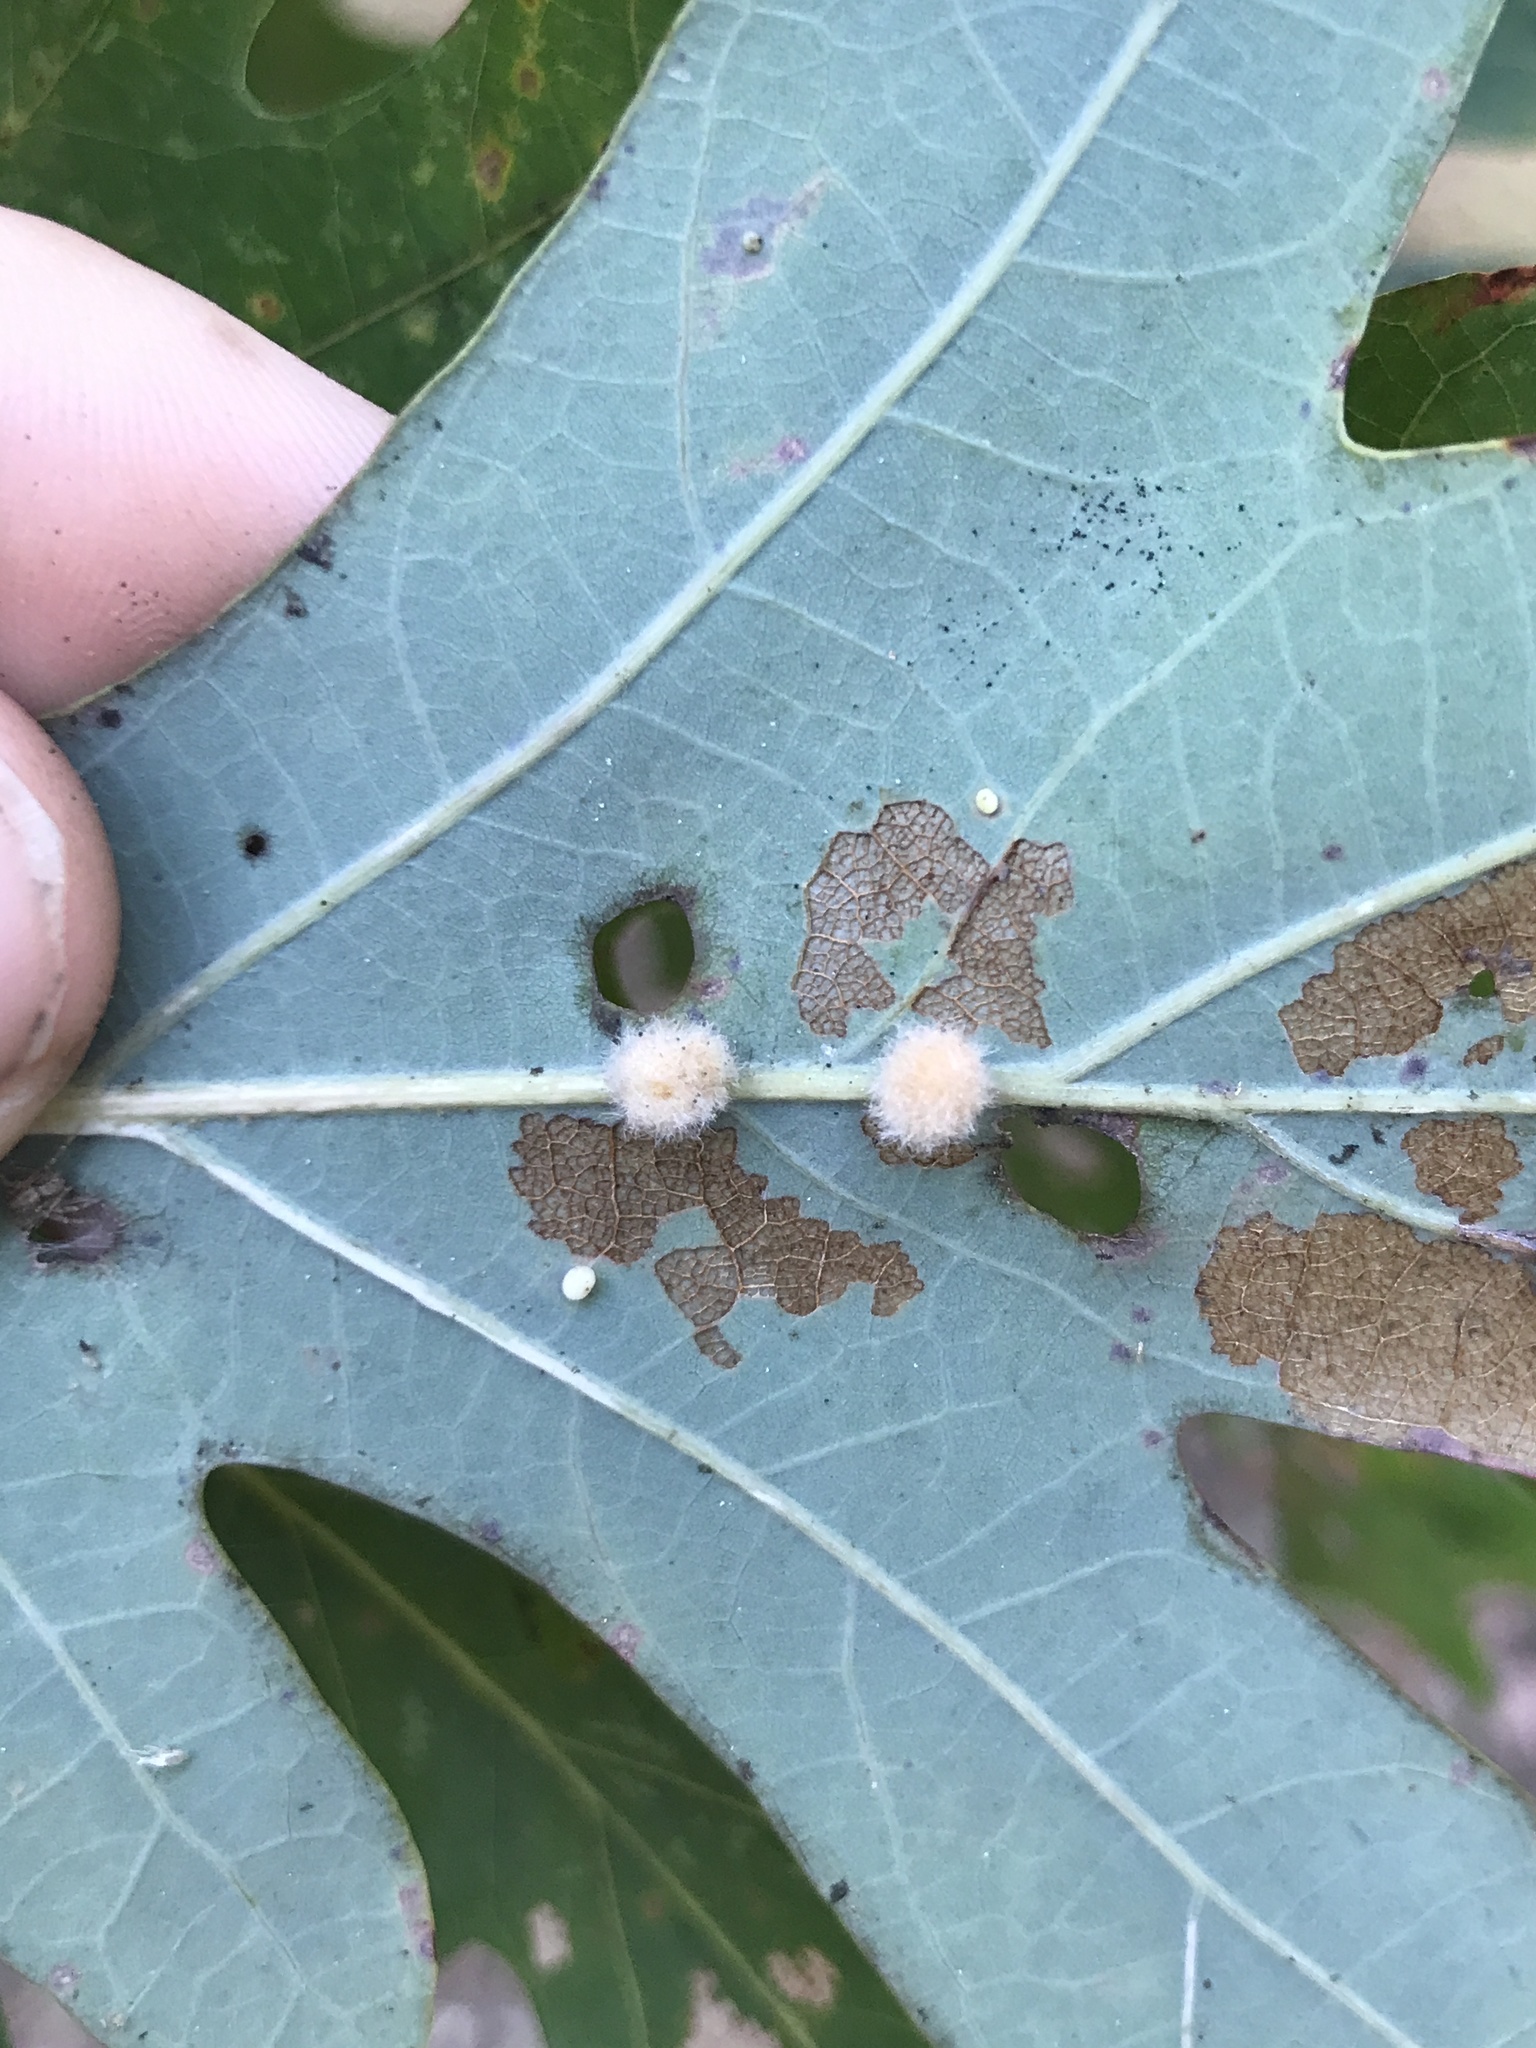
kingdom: Animalia
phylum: Arthropoda
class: Insecta
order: Hymenoptera
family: Cynipidae
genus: Andricus
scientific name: Andricus quercusflocci
